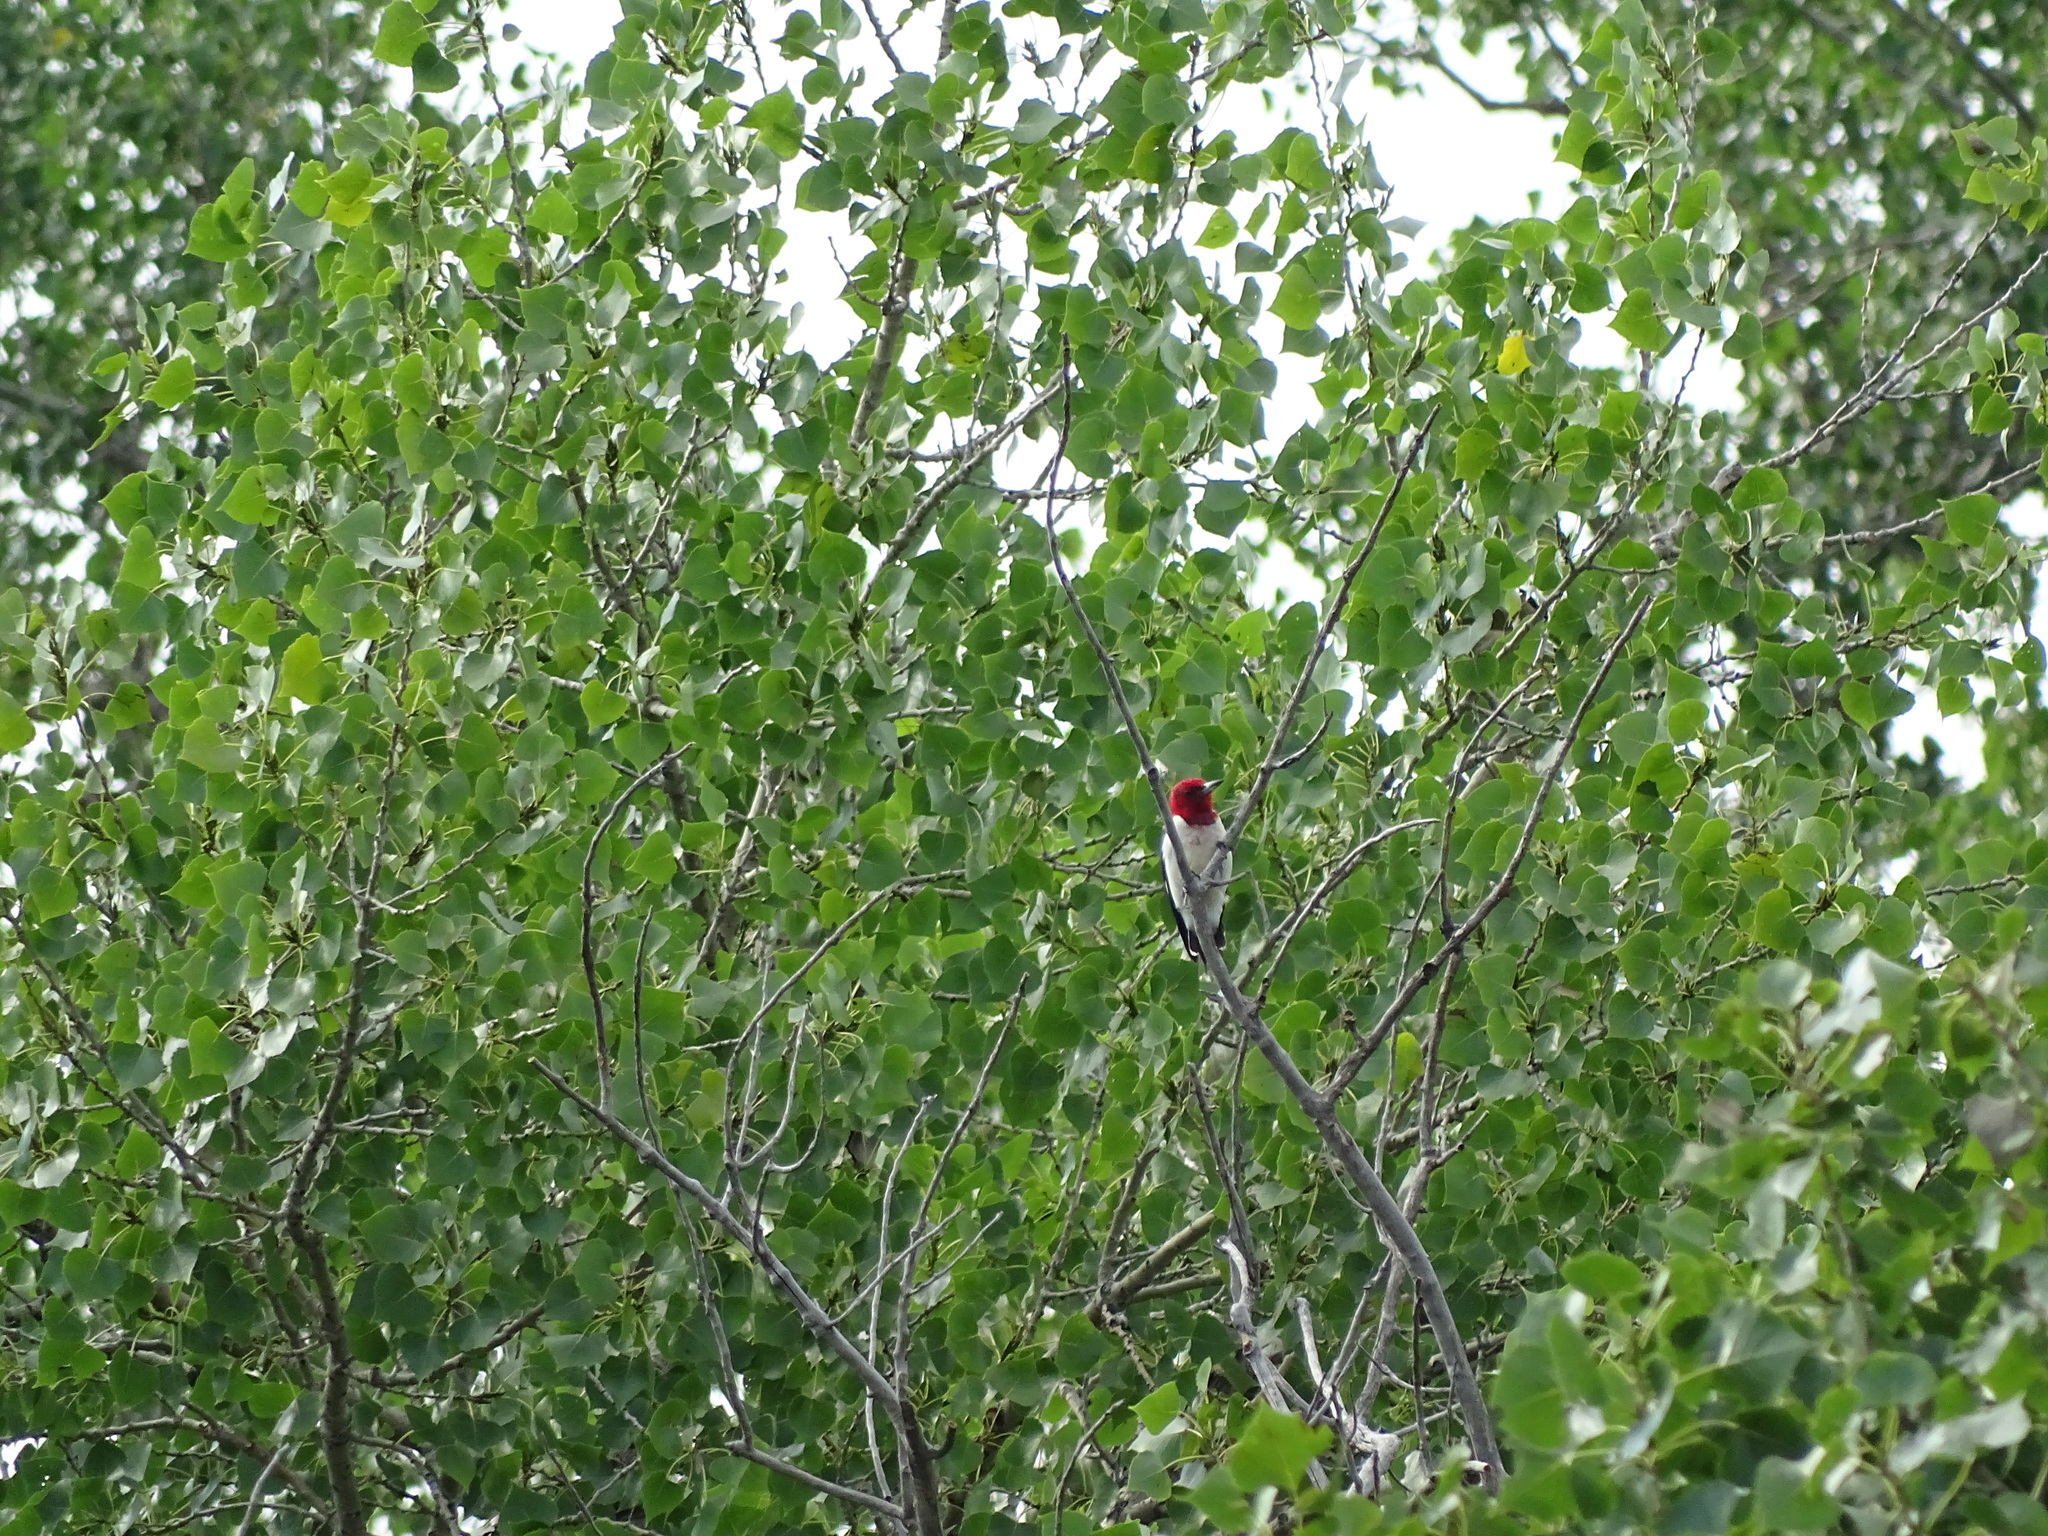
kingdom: Animalia
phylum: Chordata
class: Aves
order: Piciformes
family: Picidae
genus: Melanerpes
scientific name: Melanerpes erythrocephalus
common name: Red-headed woodpecker
